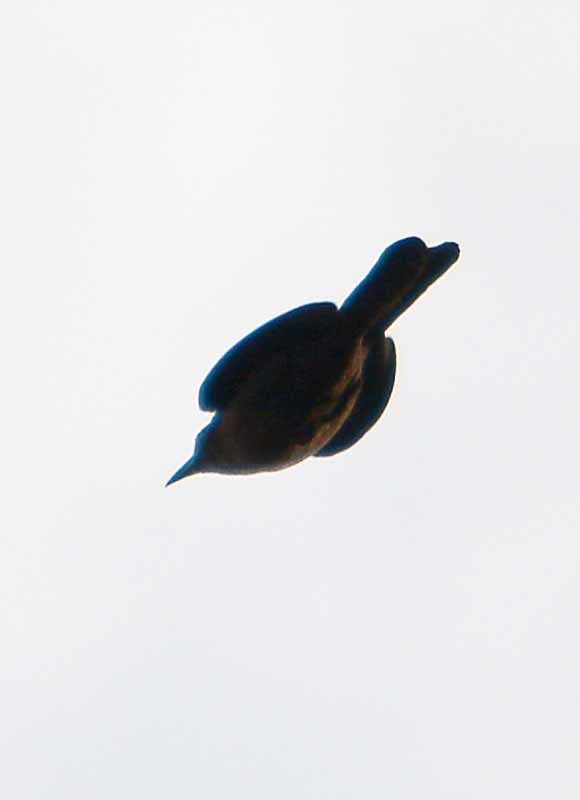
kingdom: Animalia
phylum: Chordata
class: Aves
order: Passeriformes
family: Icteridae
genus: Quiscalus
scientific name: Quiscalus mexicanus
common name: Great-tailed grackle
